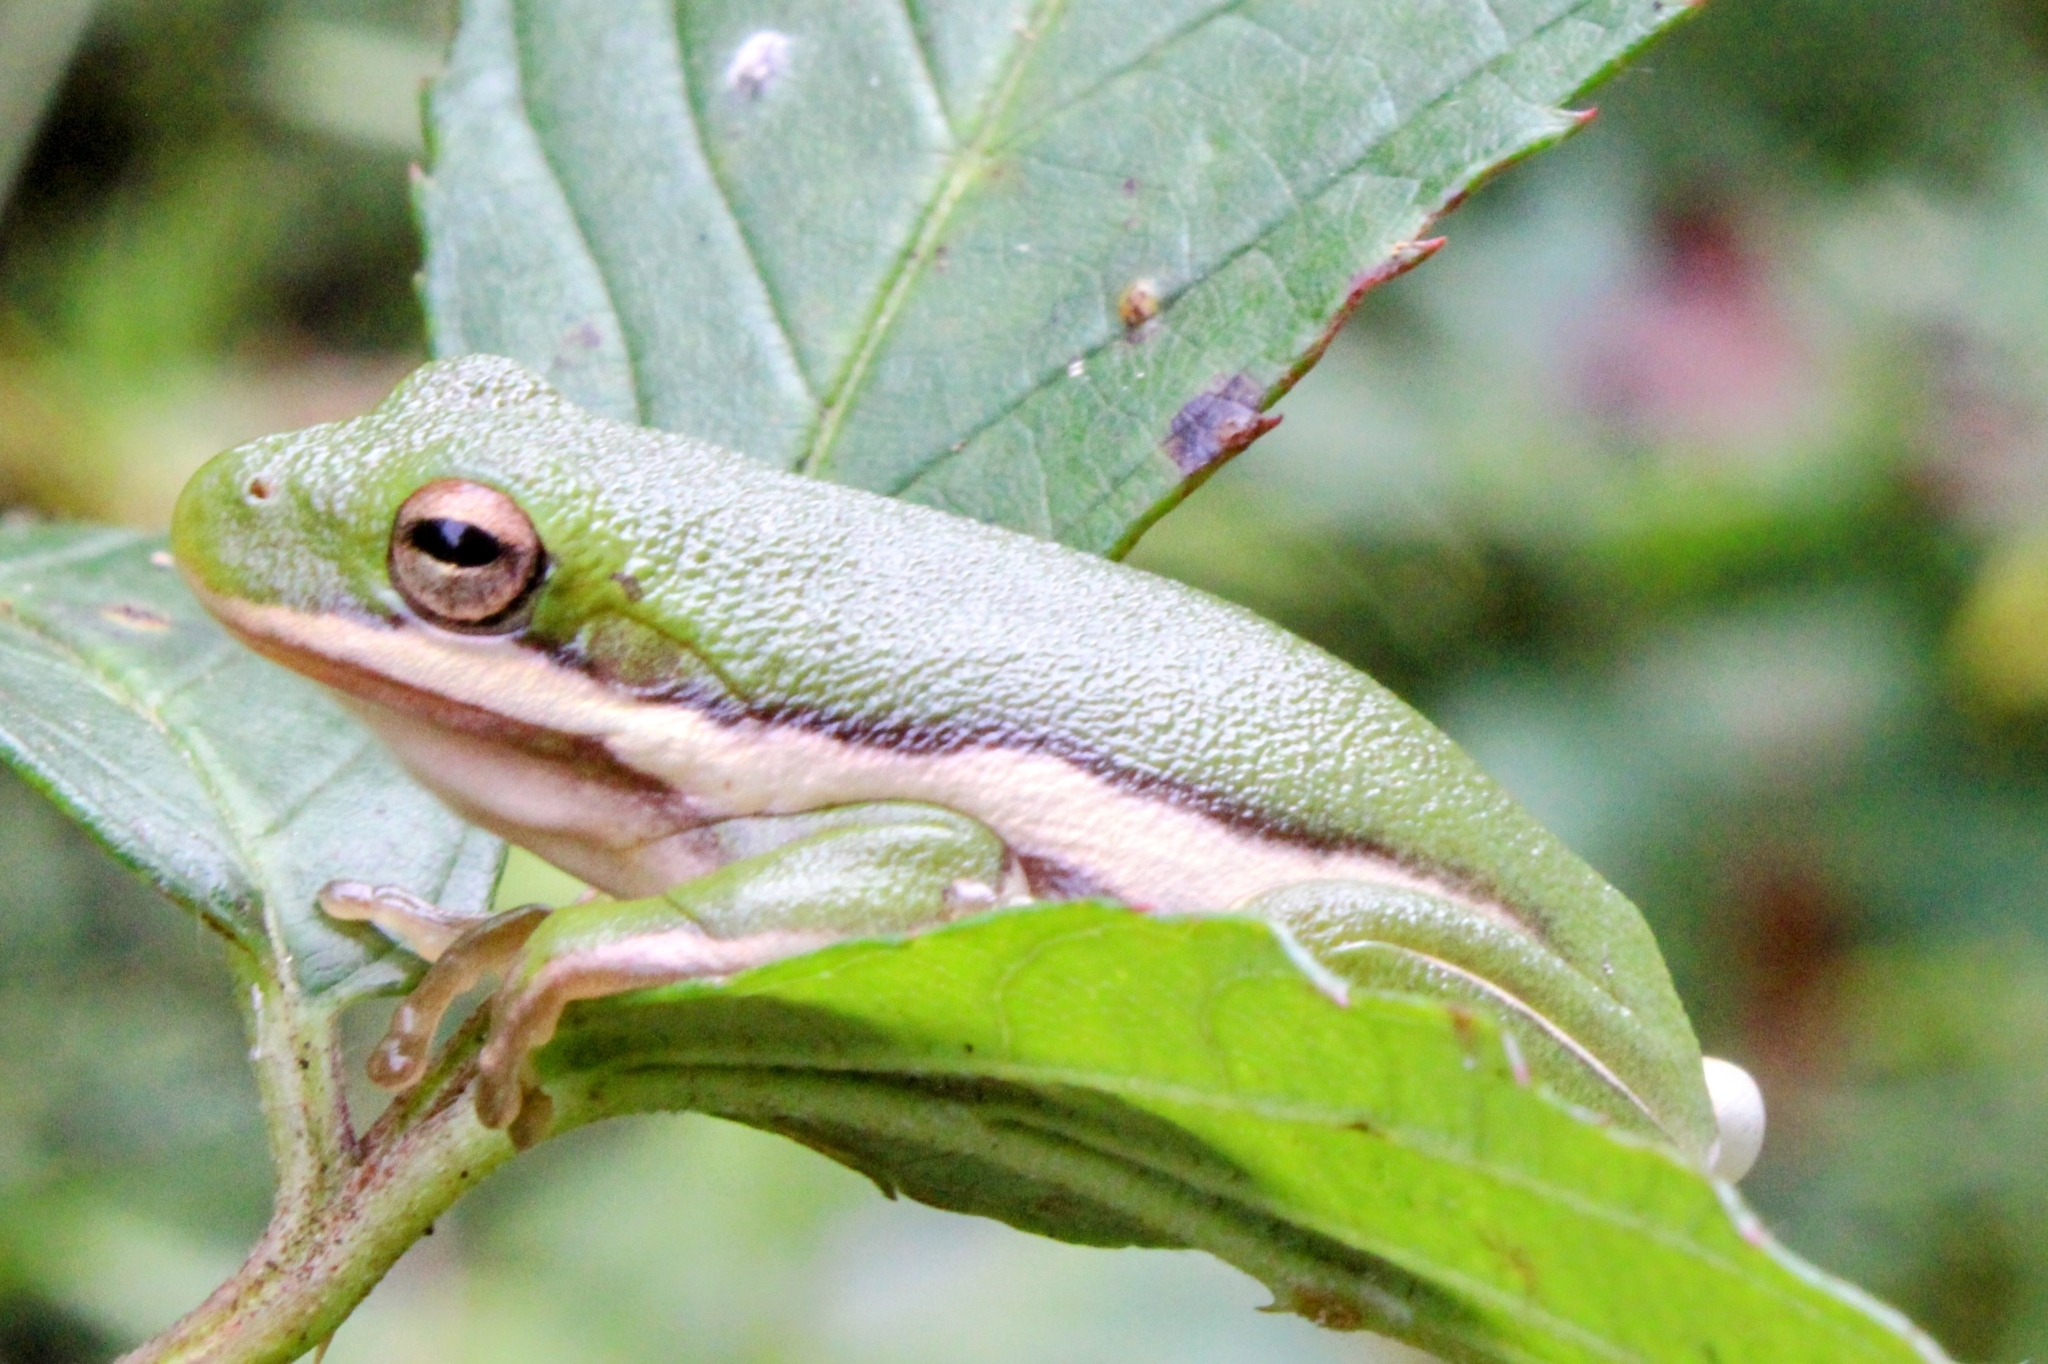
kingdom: Animalia
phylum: Chordata
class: Amphibia
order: Anura
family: Hylidae
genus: Dryophytes
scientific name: Dryophytes cinereus
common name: Green treefrog
